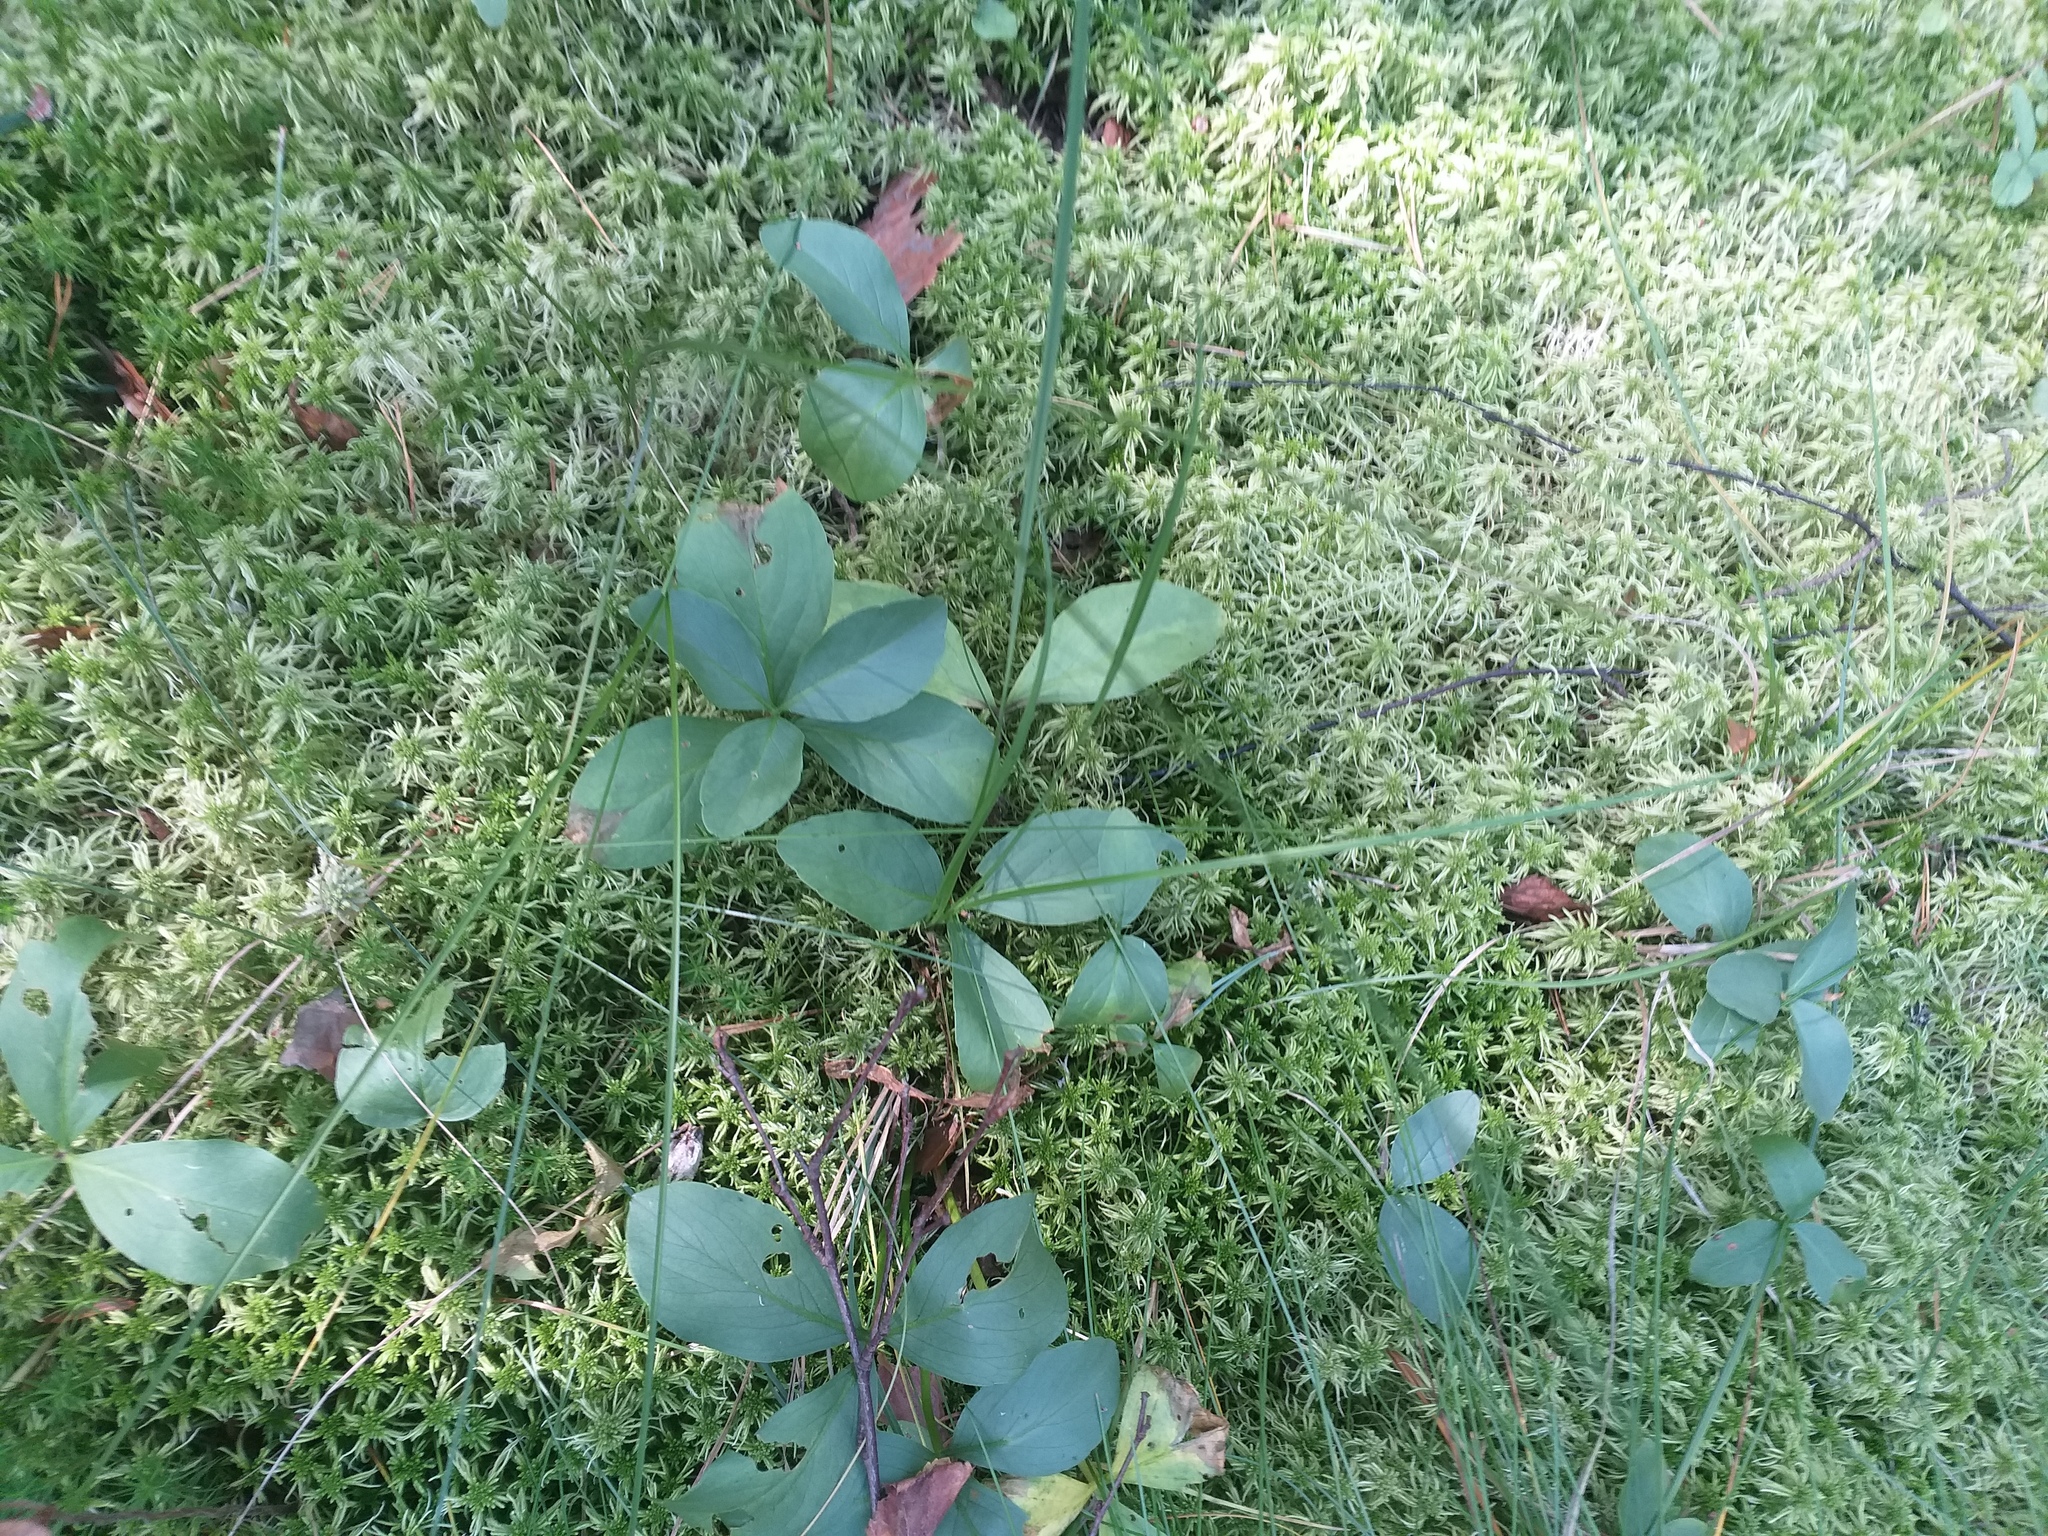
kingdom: Plantae
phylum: Tracheophyta
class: Magnoliopsida
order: Asterales
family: Menyanthaceae
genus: Menyanthes
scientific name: Menyanthes trifoliata
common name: Bogbean
